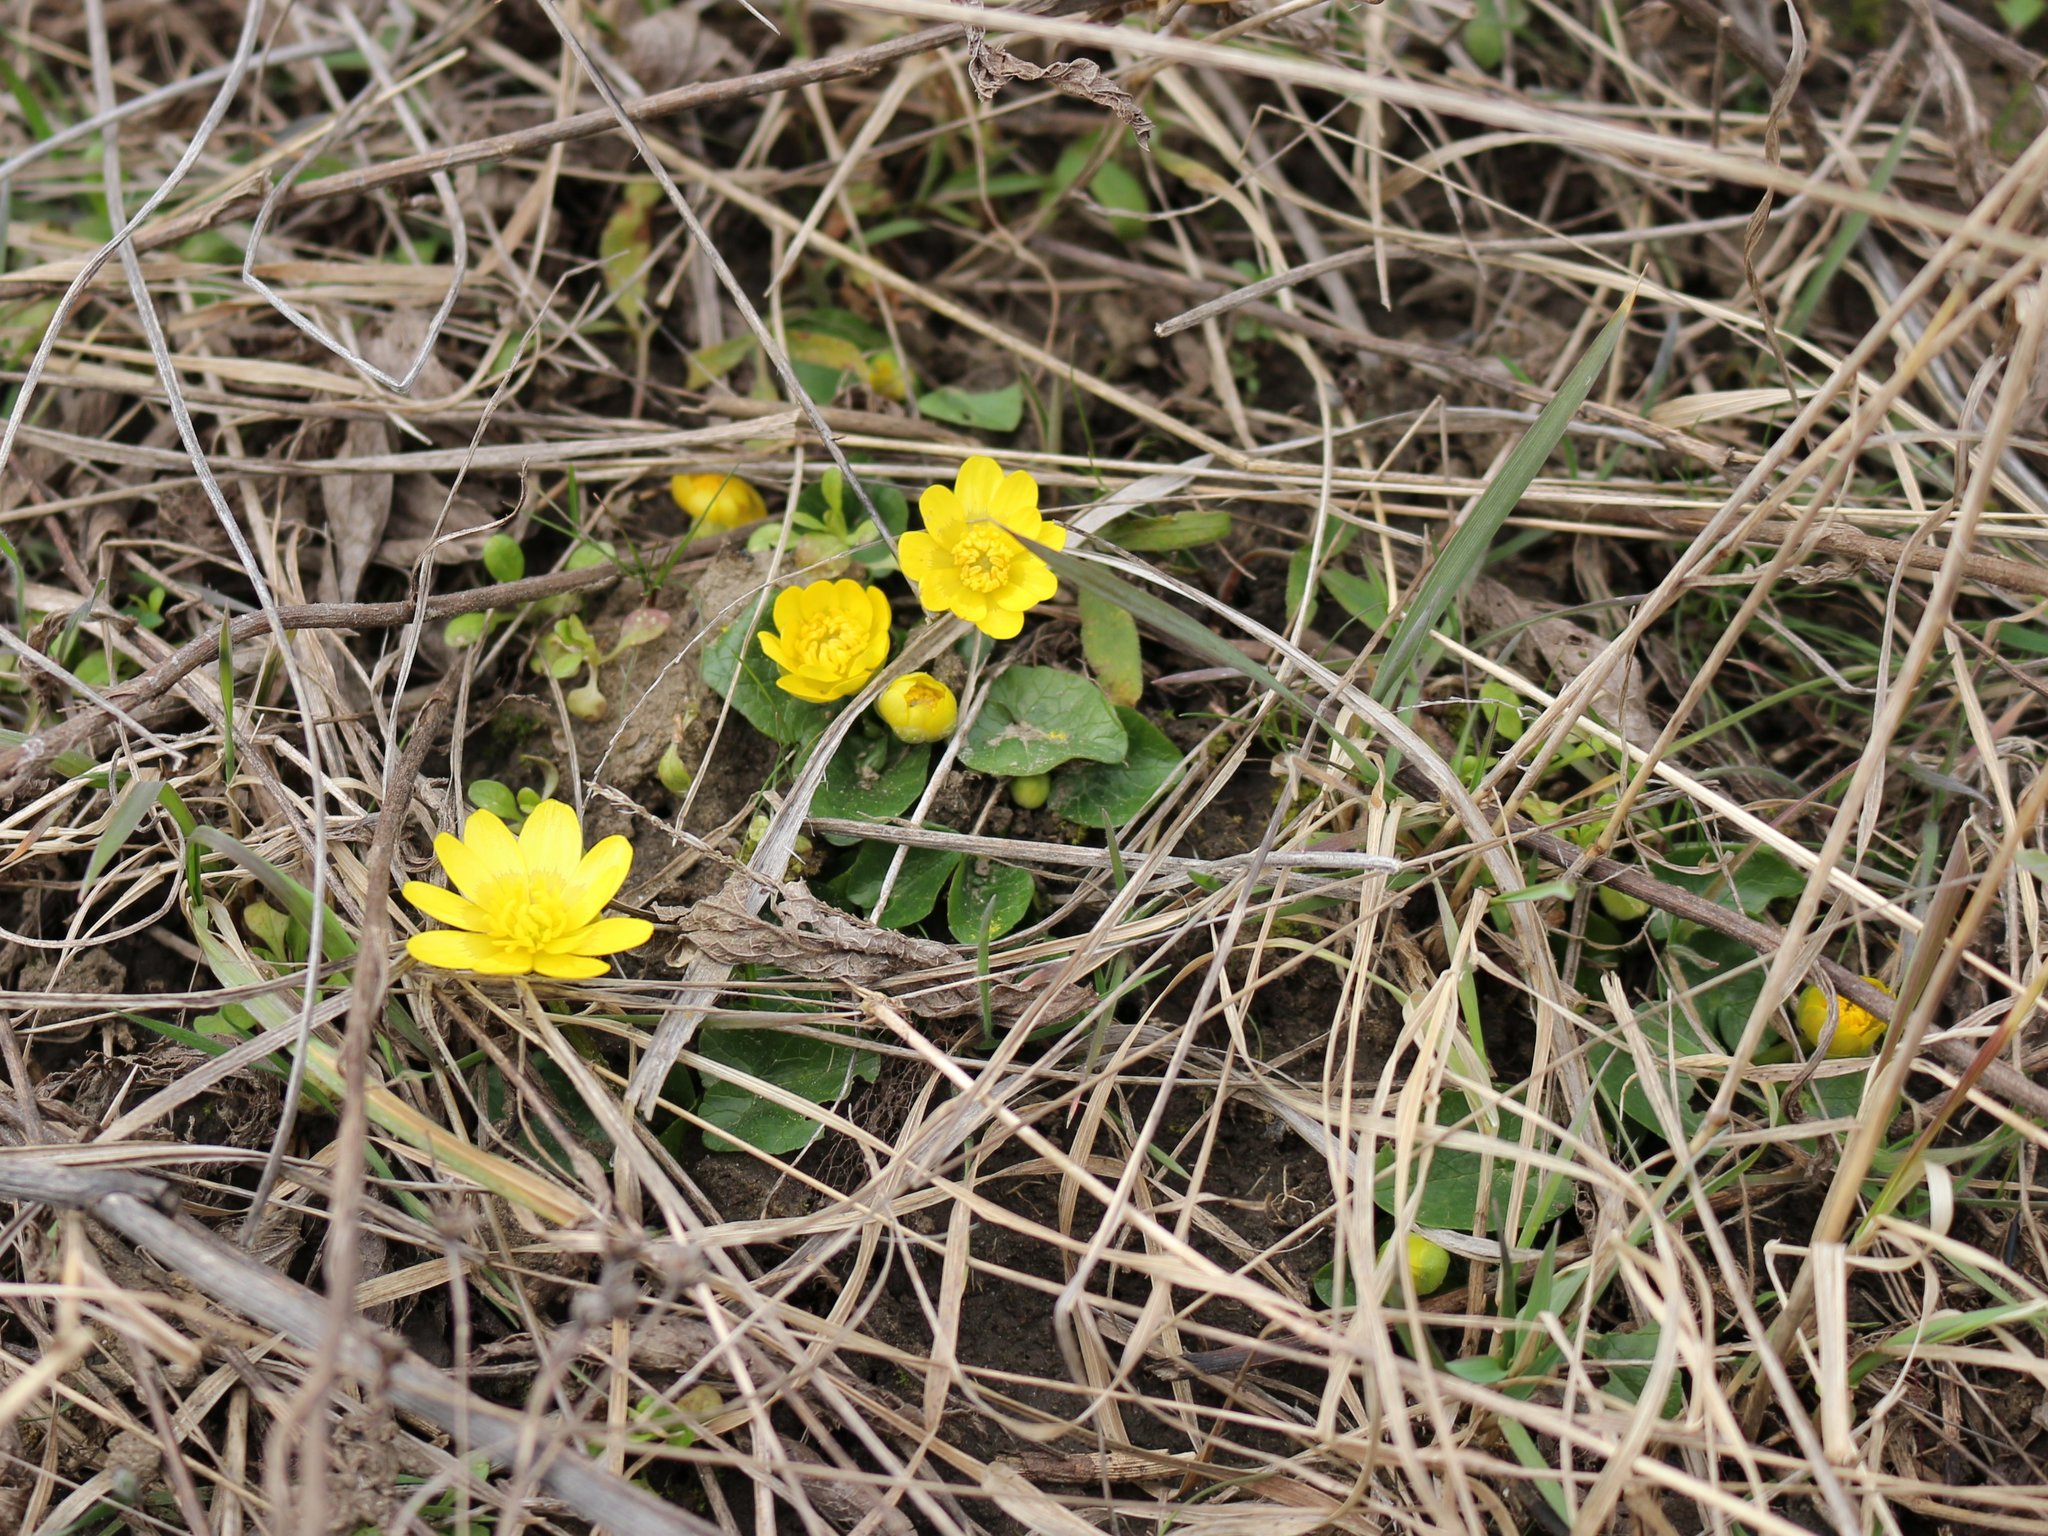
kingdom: Plantae
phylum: Tracheophyta
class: Magnoliopsida
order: Ranunculales
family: Ranunculaceae
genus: Ficaria
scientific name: Ficaria verna
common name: Lesser celandine
